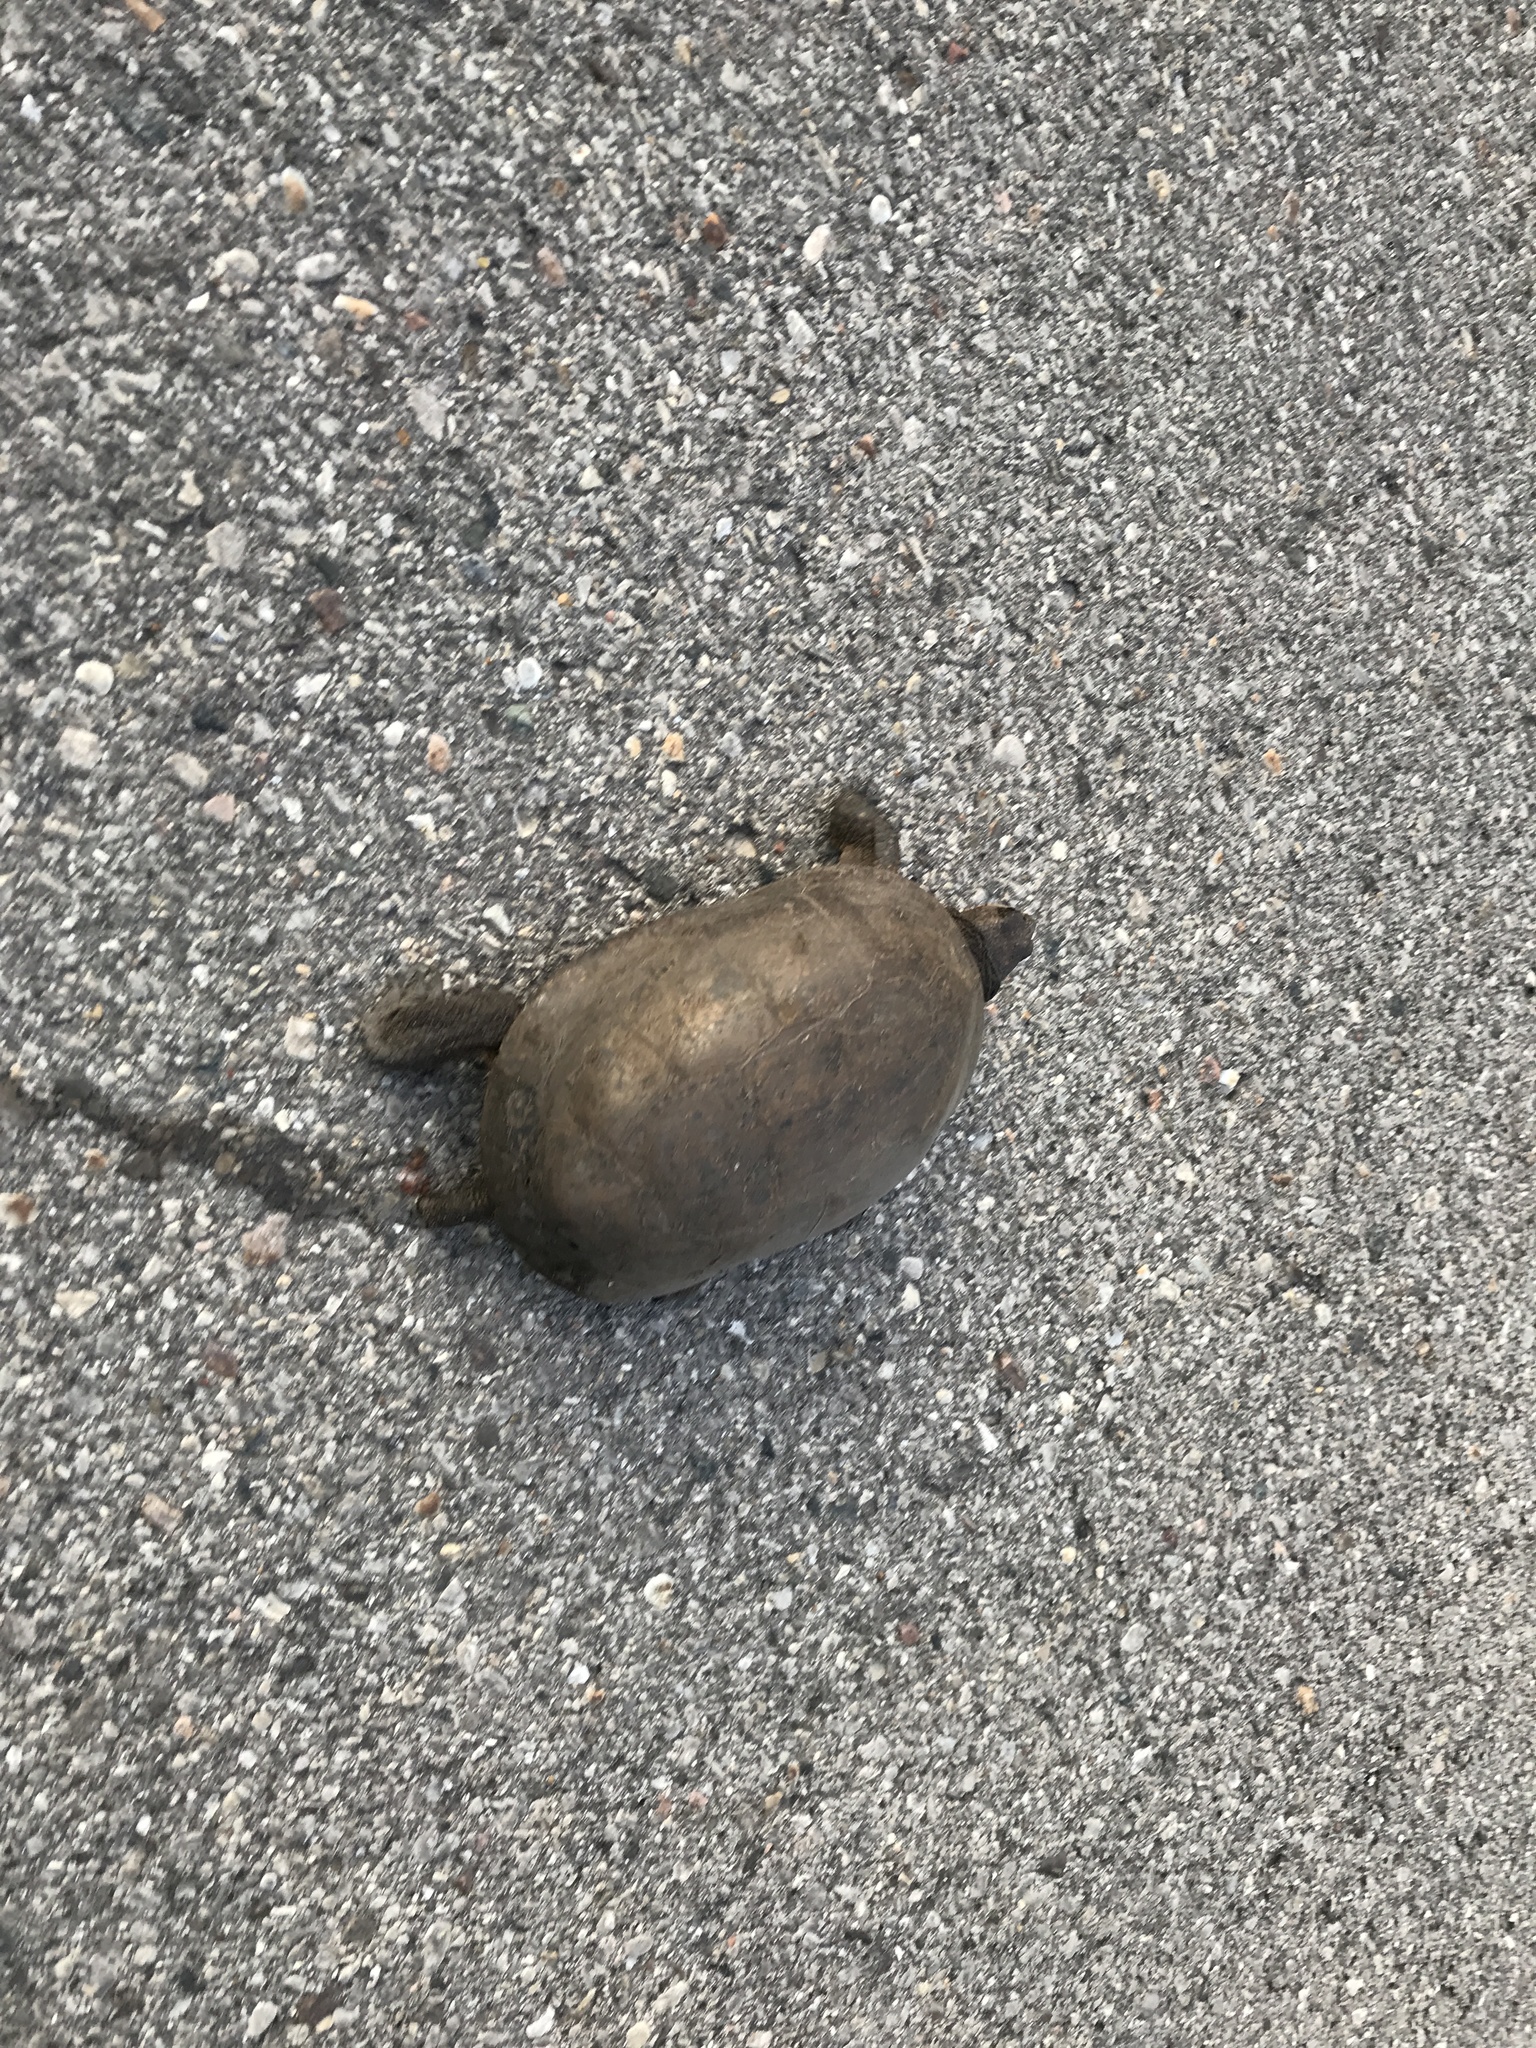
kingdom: Animalia
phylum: Chordata
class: Testudines
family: Emydidae
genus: Emys
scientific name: Emys blandingii
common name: Blanding's turtle
